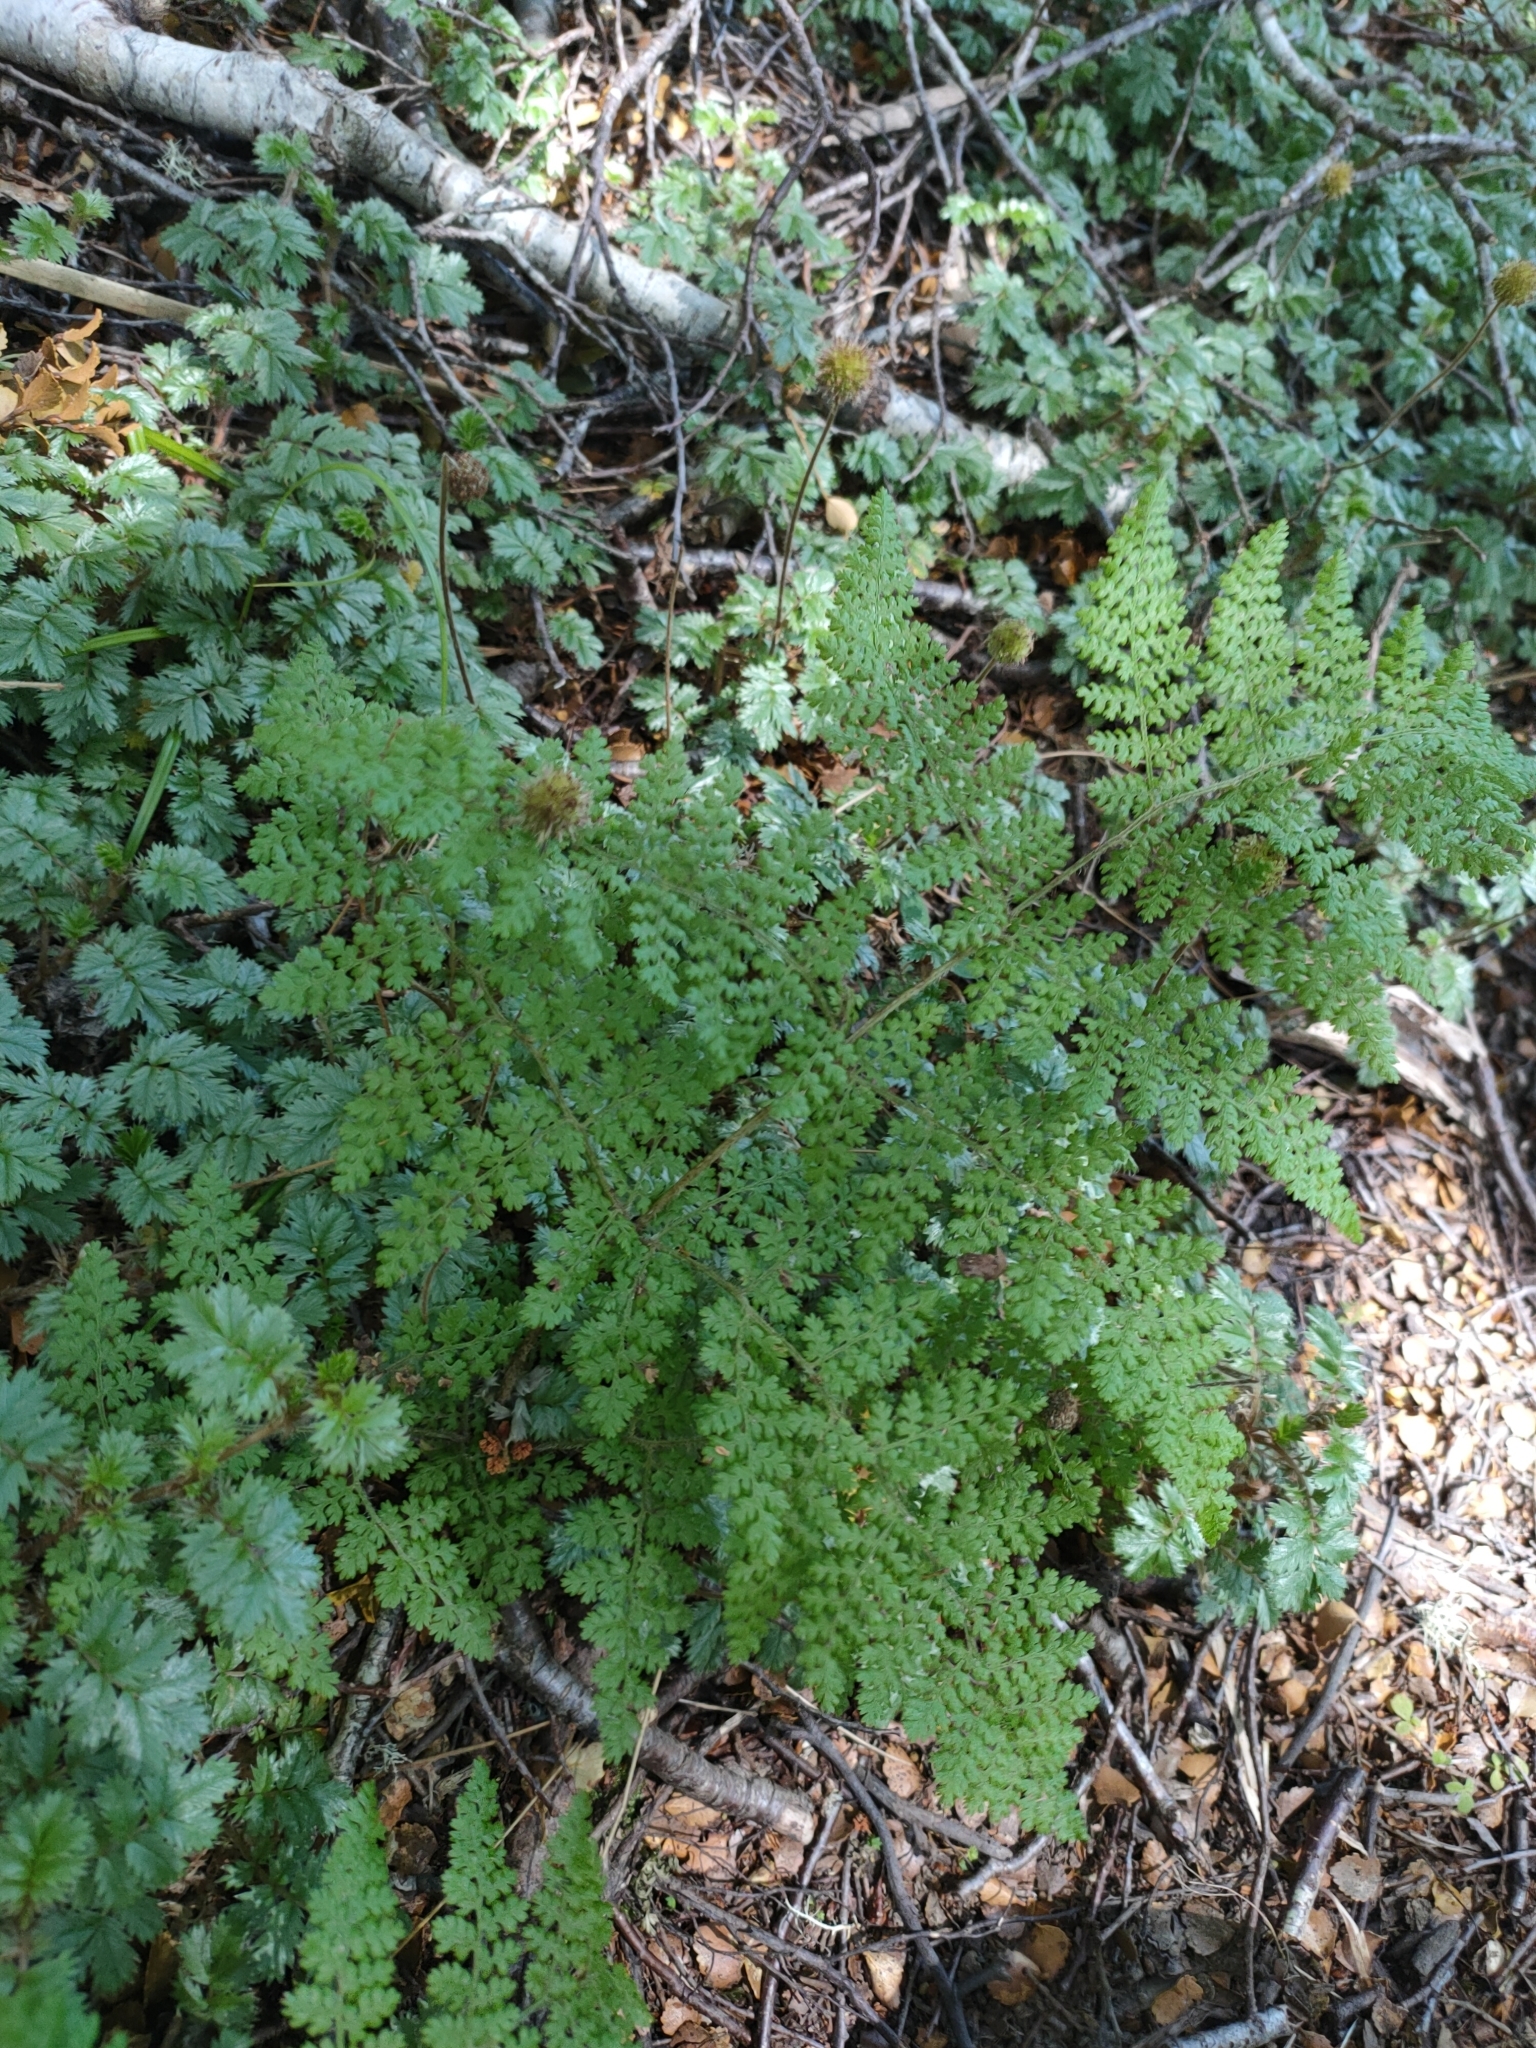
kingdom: Plantae
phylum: Tracheophyta
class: Polypodiopsida
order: Polypodiales
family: Dennstaedtiaceae
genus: Hypolepis
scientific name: Hypolepis millefolium
